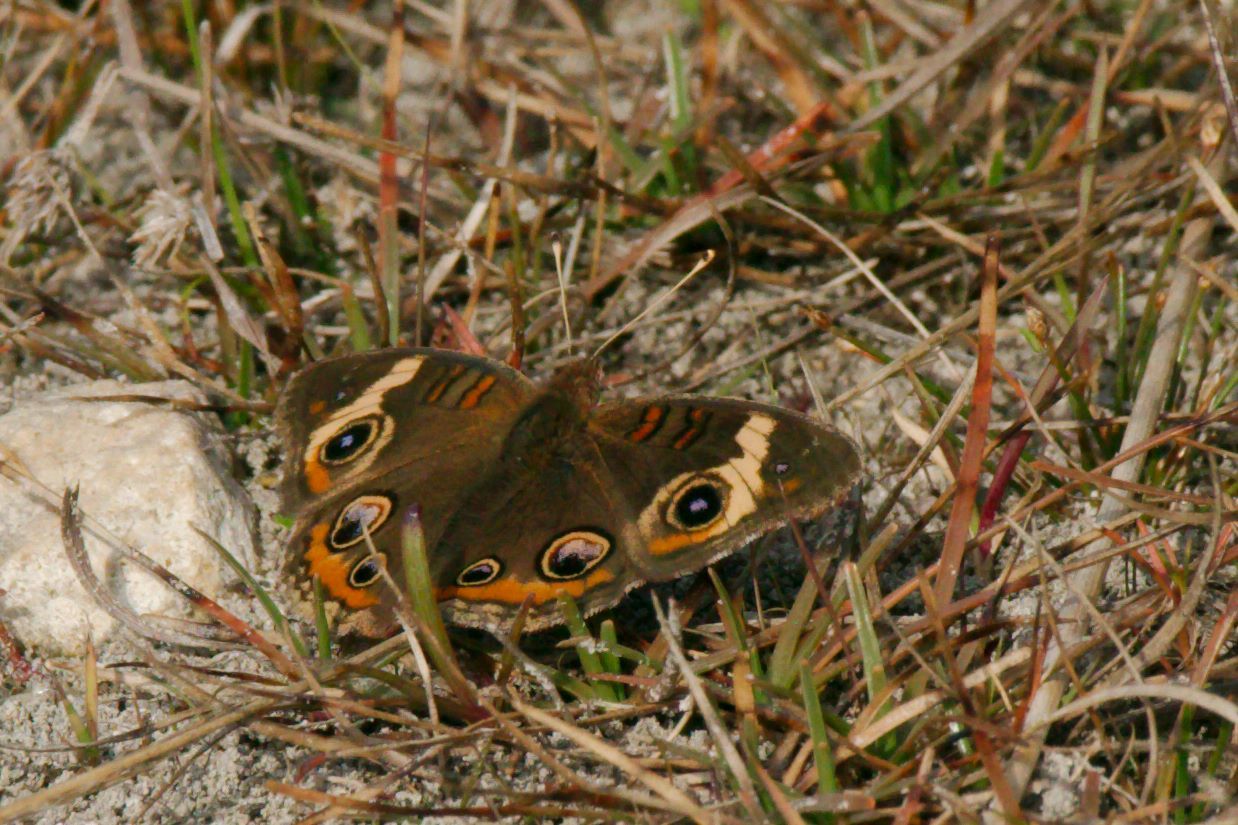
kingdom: Animalia
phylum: Arthropoda
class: Insecta
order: Lepidoptera
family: Nymphalidae
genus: Junonia
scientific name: Junonia coenia
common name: Common buckeye
